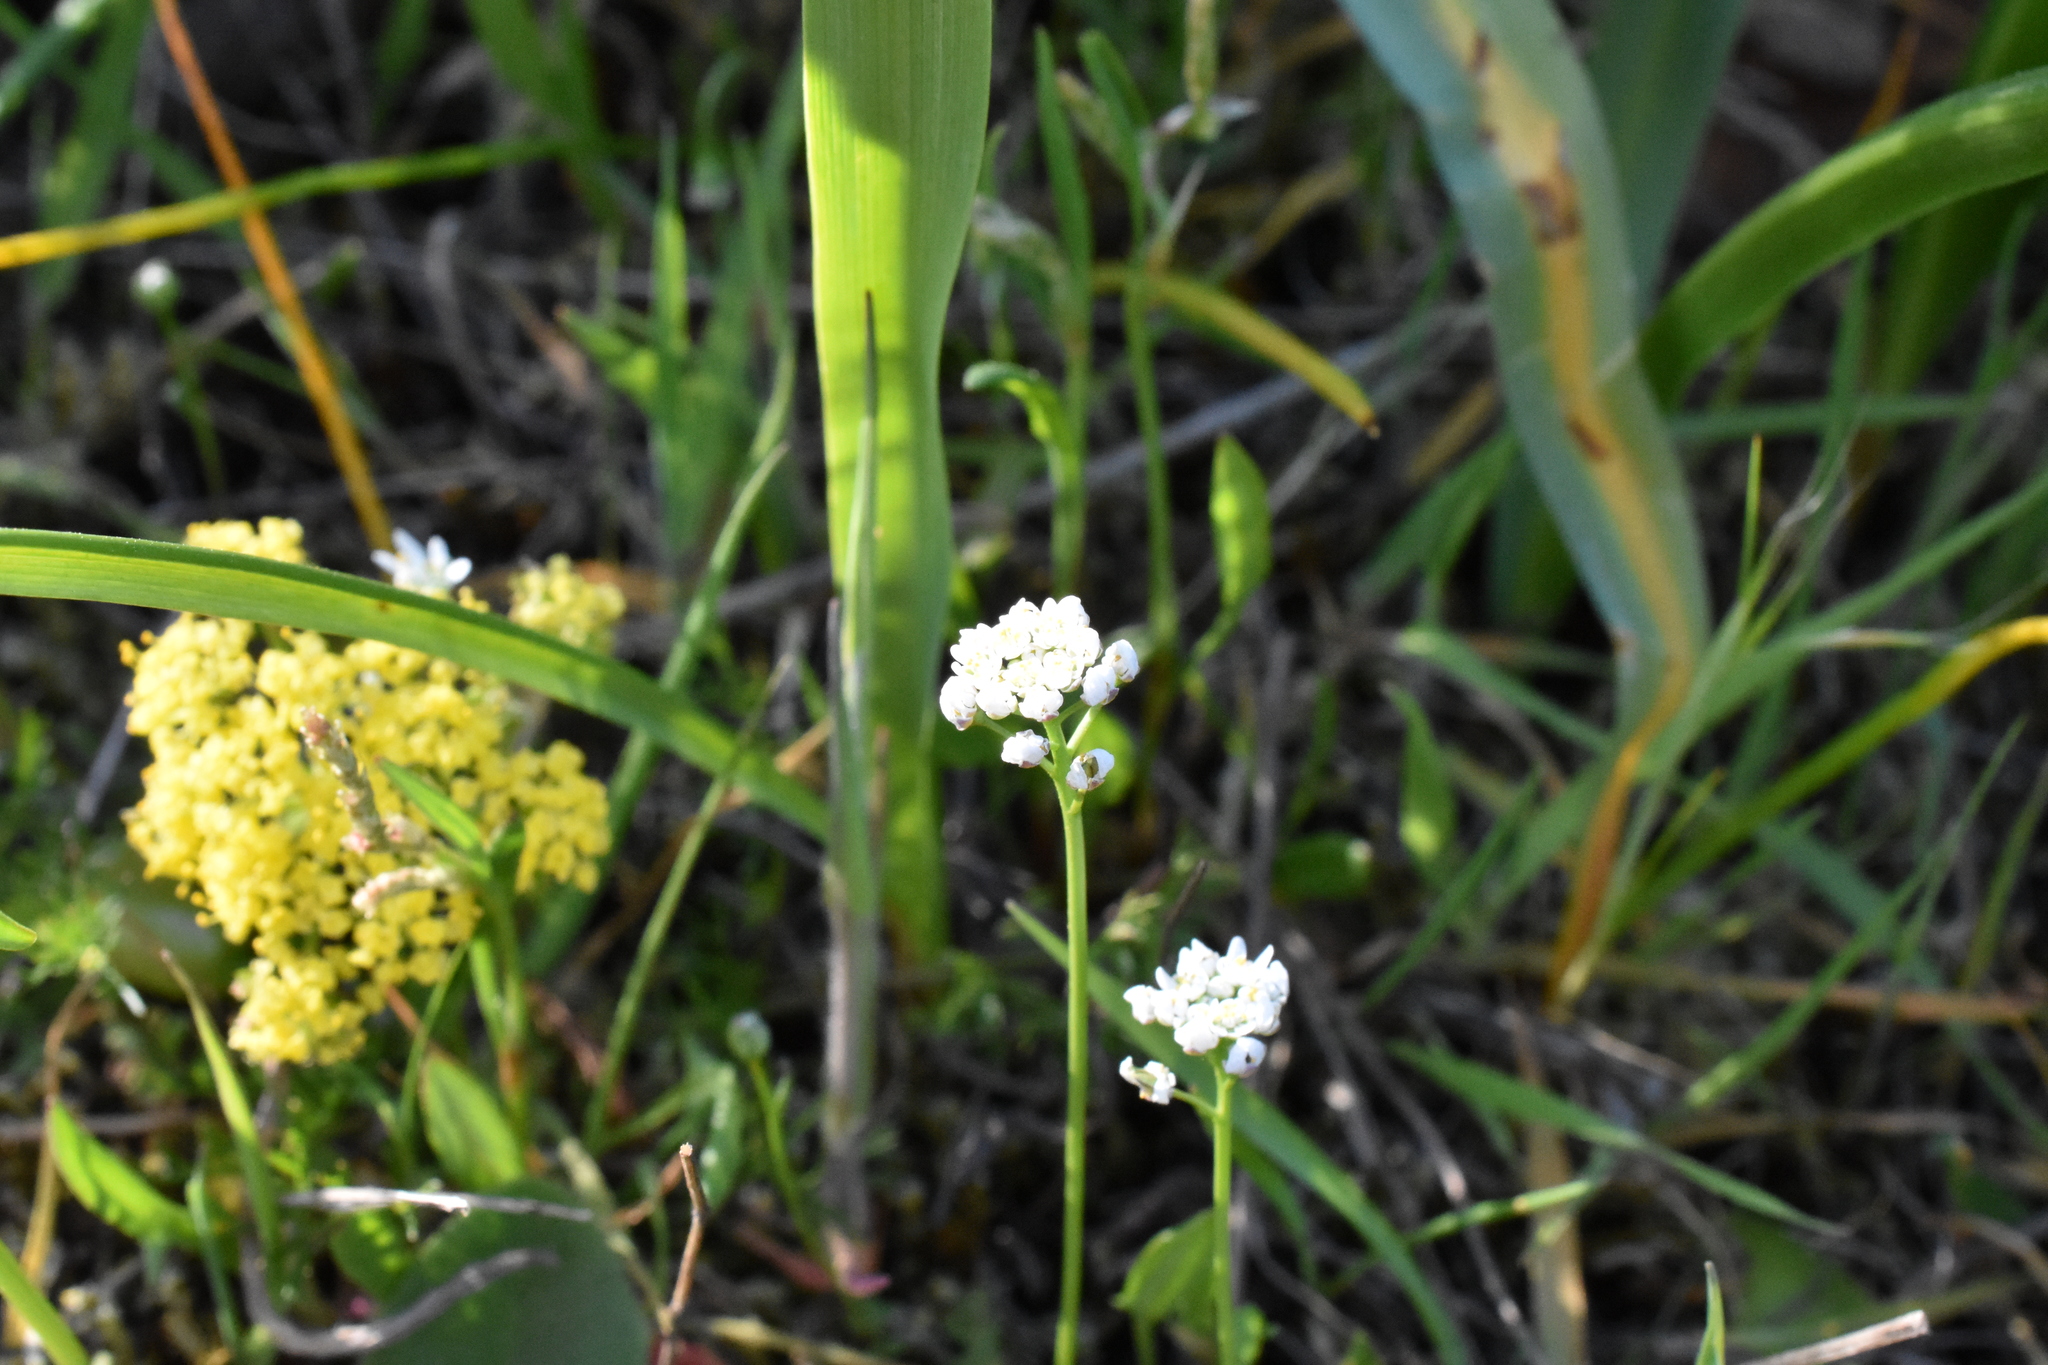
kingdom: Plantae
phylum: Tracheophyta
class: Magnoliopsida
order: Brassicales
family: Brassicaceae
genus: Teesdalia
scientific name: Teesdalia nudicaulis
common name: Shepherd's cress
